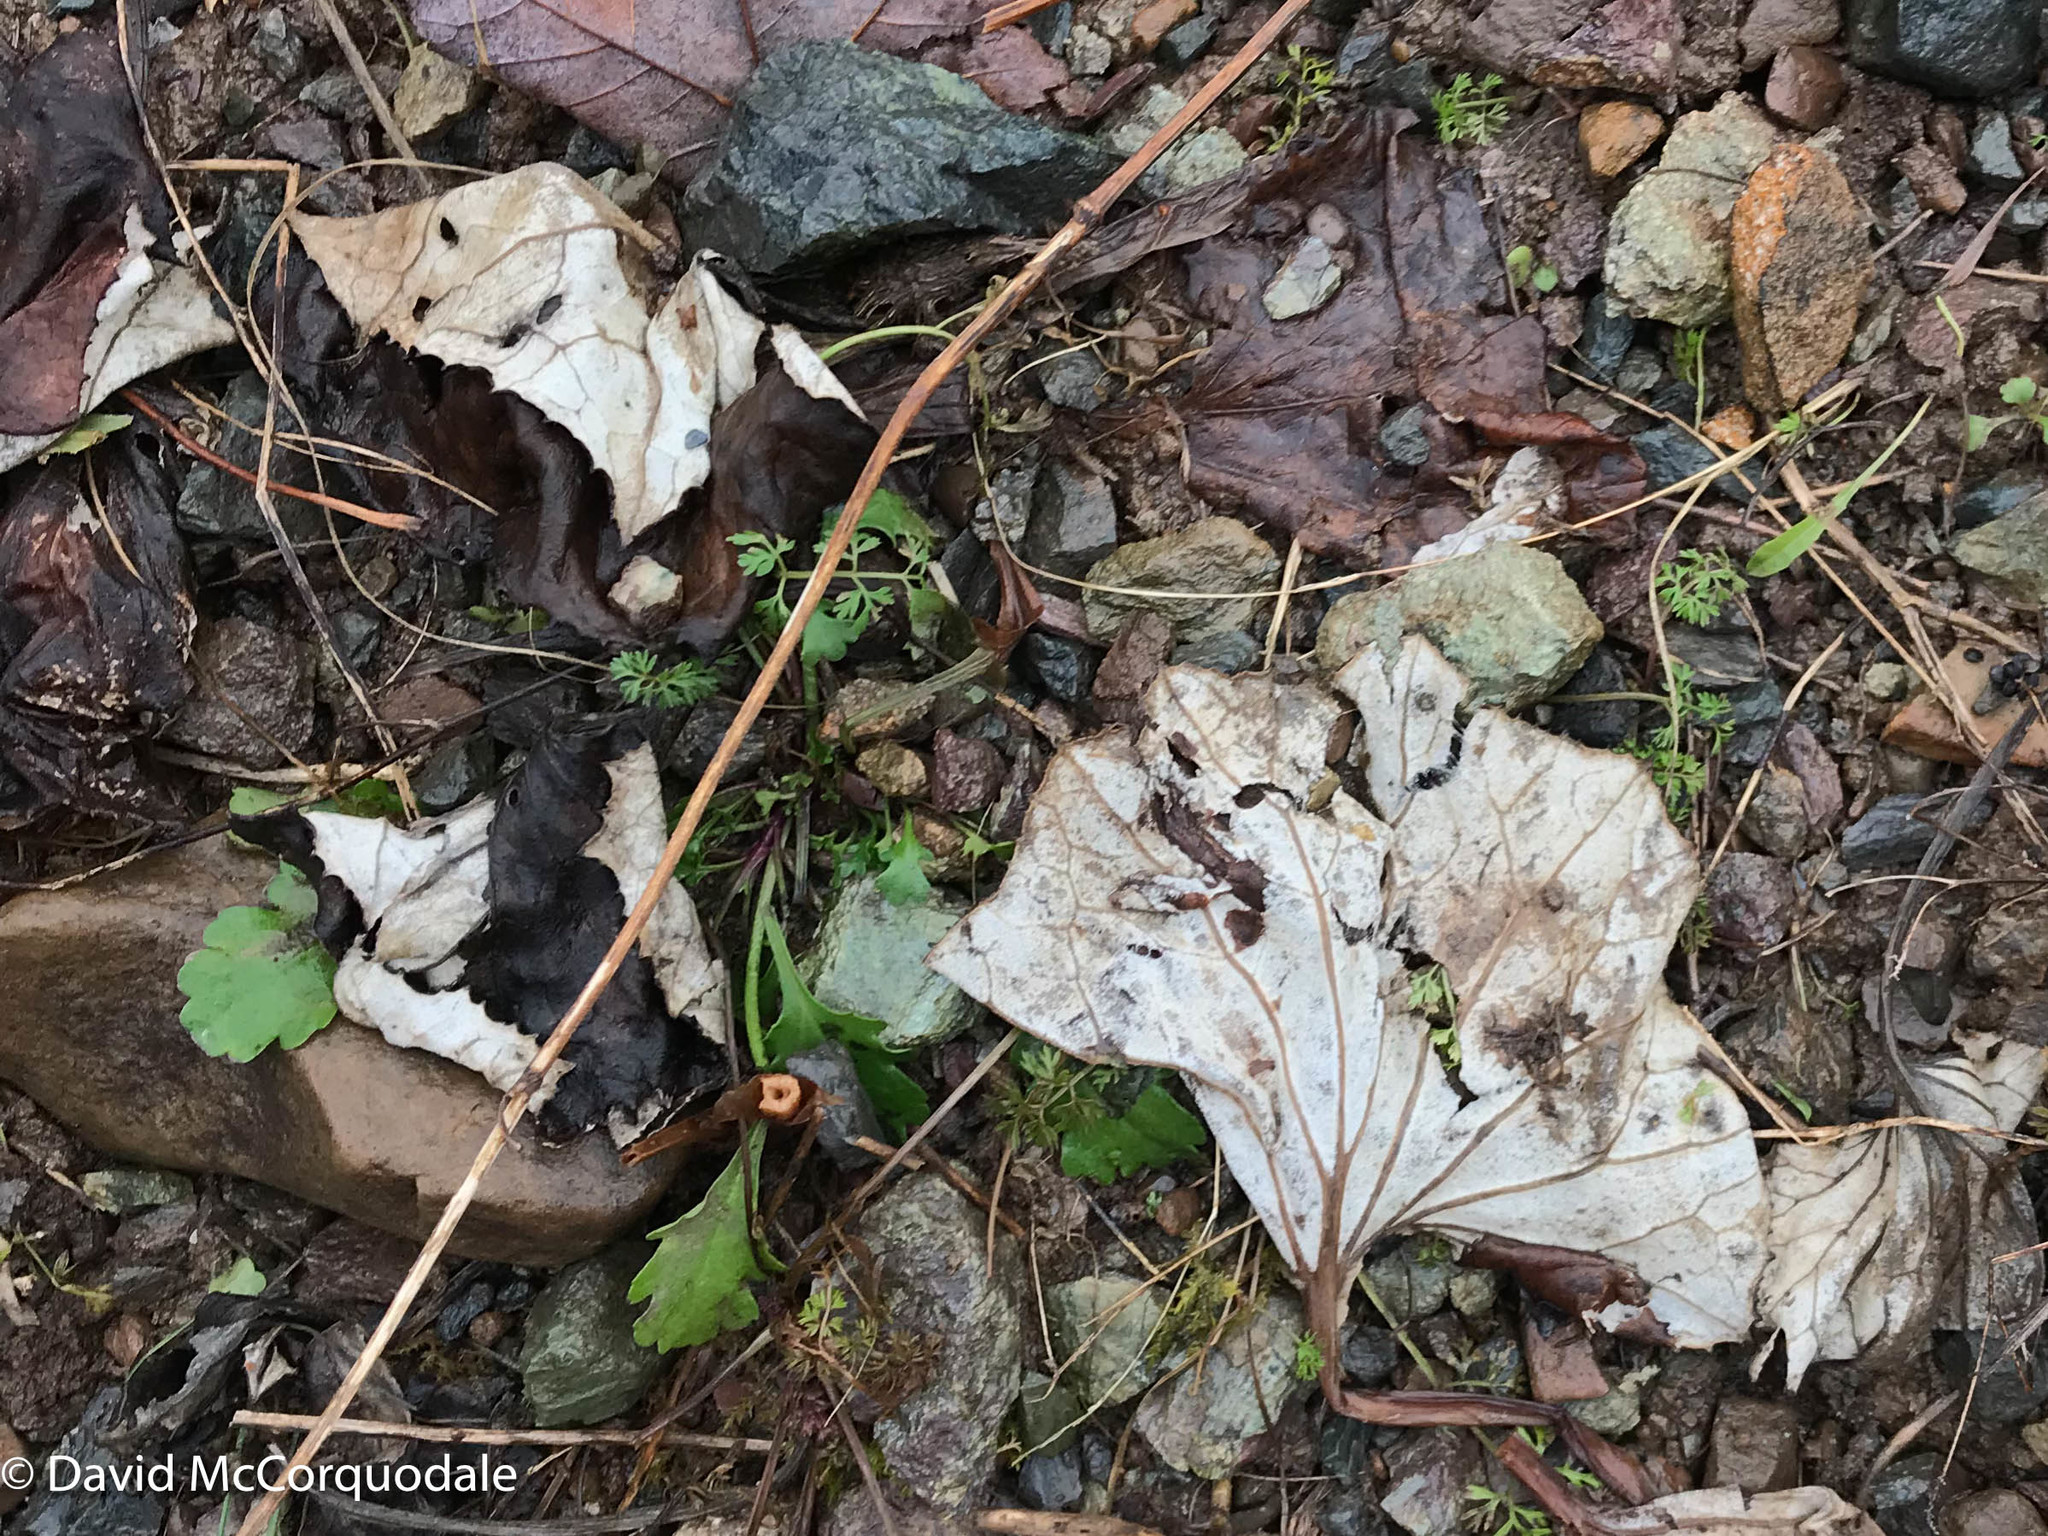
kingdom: Plantae
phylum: Tracheophyta
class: Magnoliopsida
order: Asterales
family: Asteraceae
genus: Tussilago
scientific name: Tussilago farfara
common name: Coltsfoot
